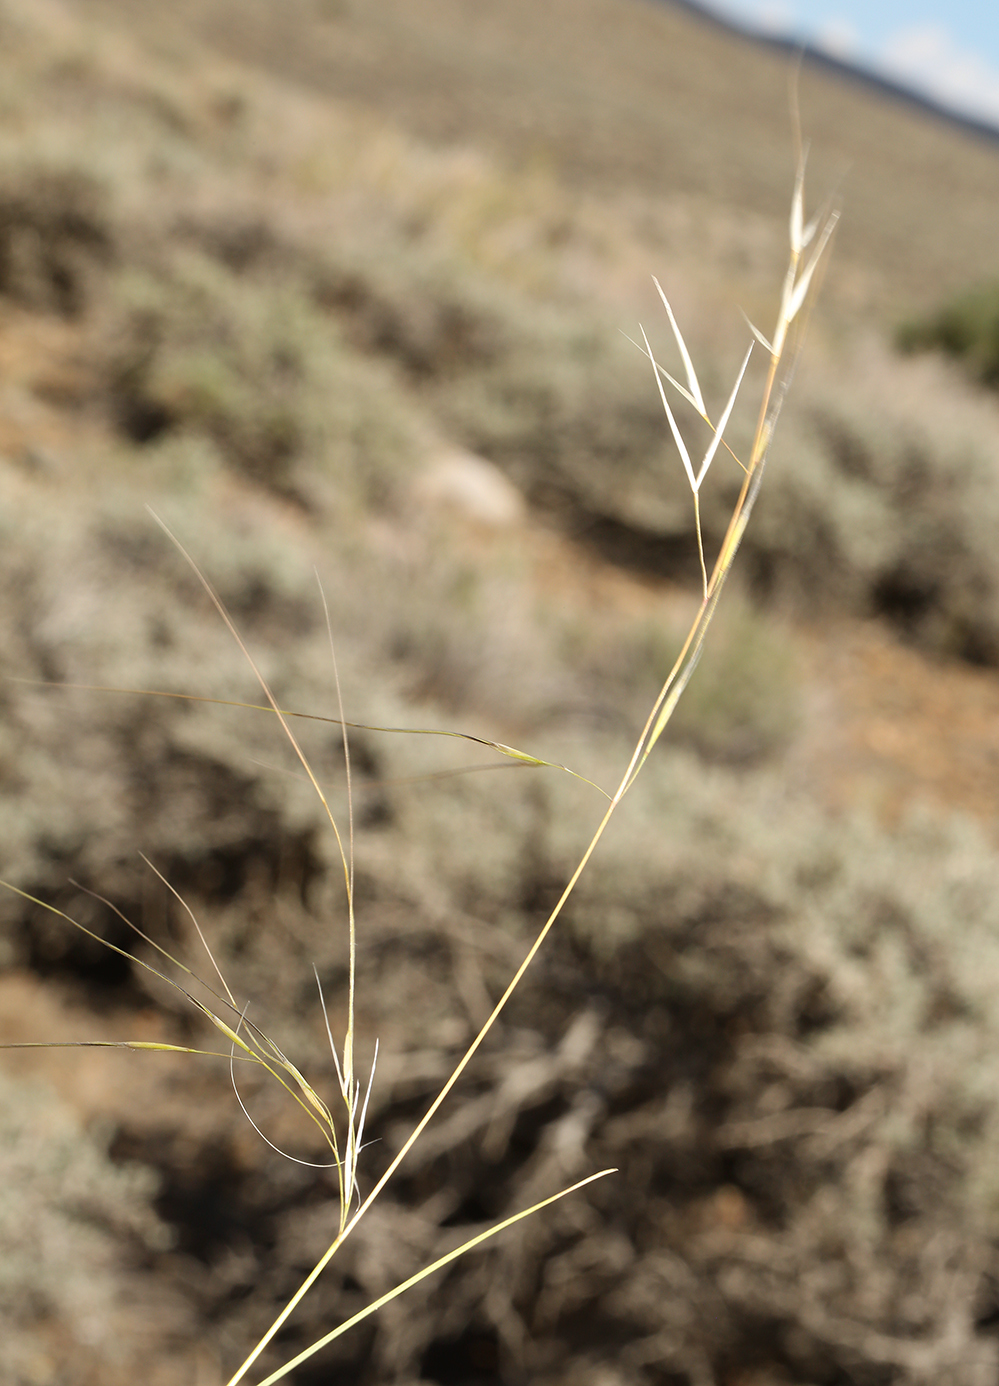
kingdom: Plantae
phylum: Tracheophyta
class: Liliopsida
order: Poales
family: Poaceae
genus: Hesperostipa
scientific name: Hesperostipa comata
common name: Needle-and-thread grass
